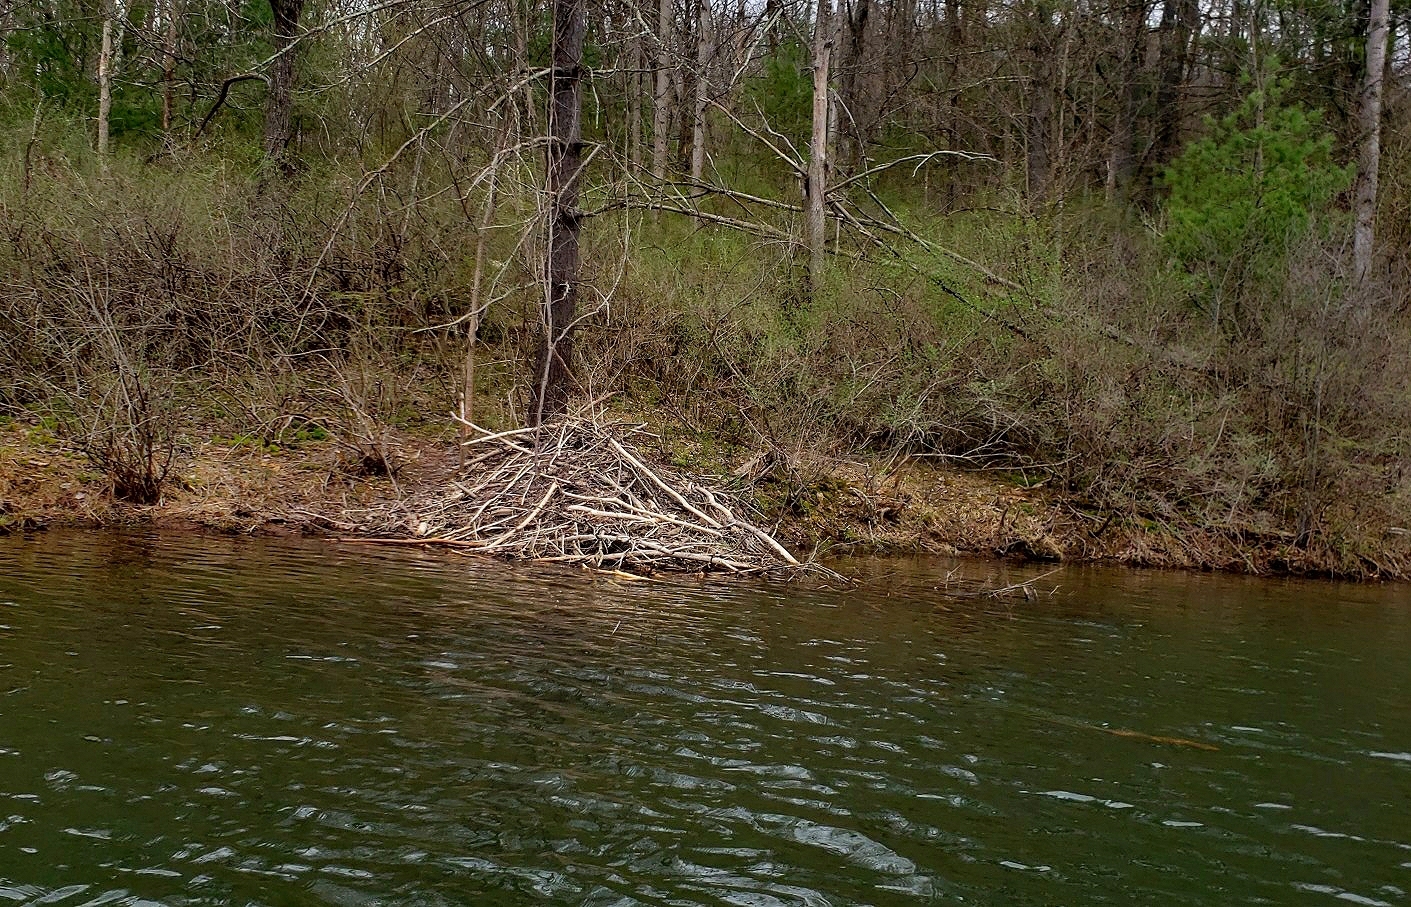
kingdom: Animalia
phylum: Chordata
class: Mammalia
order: Rodentia
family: Castoridae
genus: Castor
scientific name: Castor canadensis
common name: American beaver
